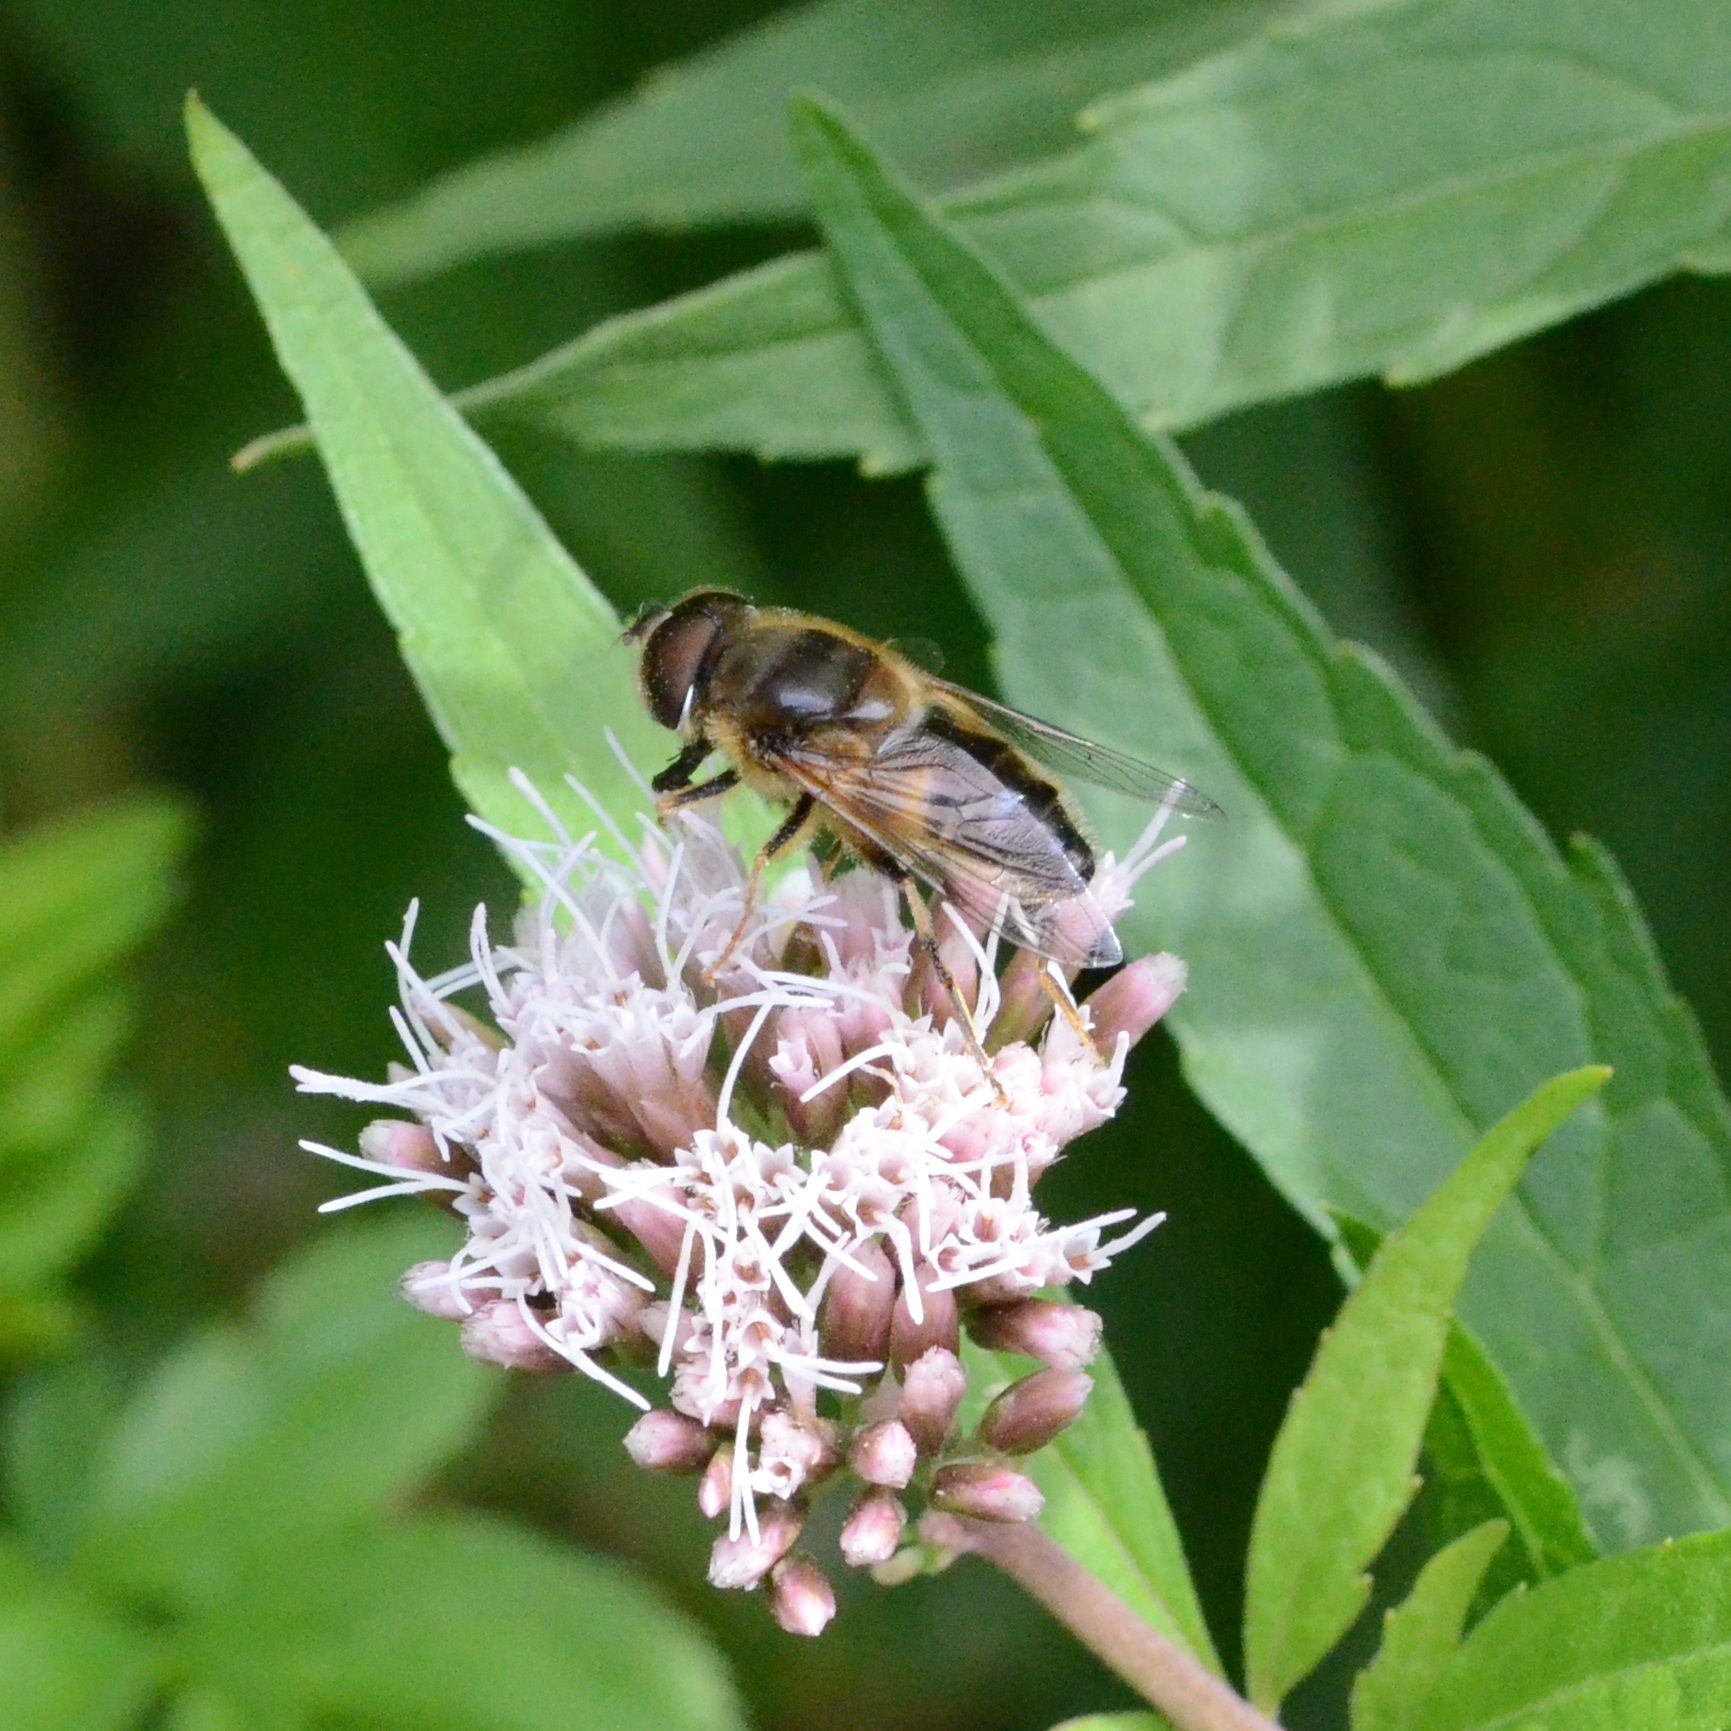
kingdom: Animalia
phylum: Arthropoda
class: Insecta
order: Diptera
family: Syrphidae
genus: Eristalis
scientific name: Eristalis pertinax
